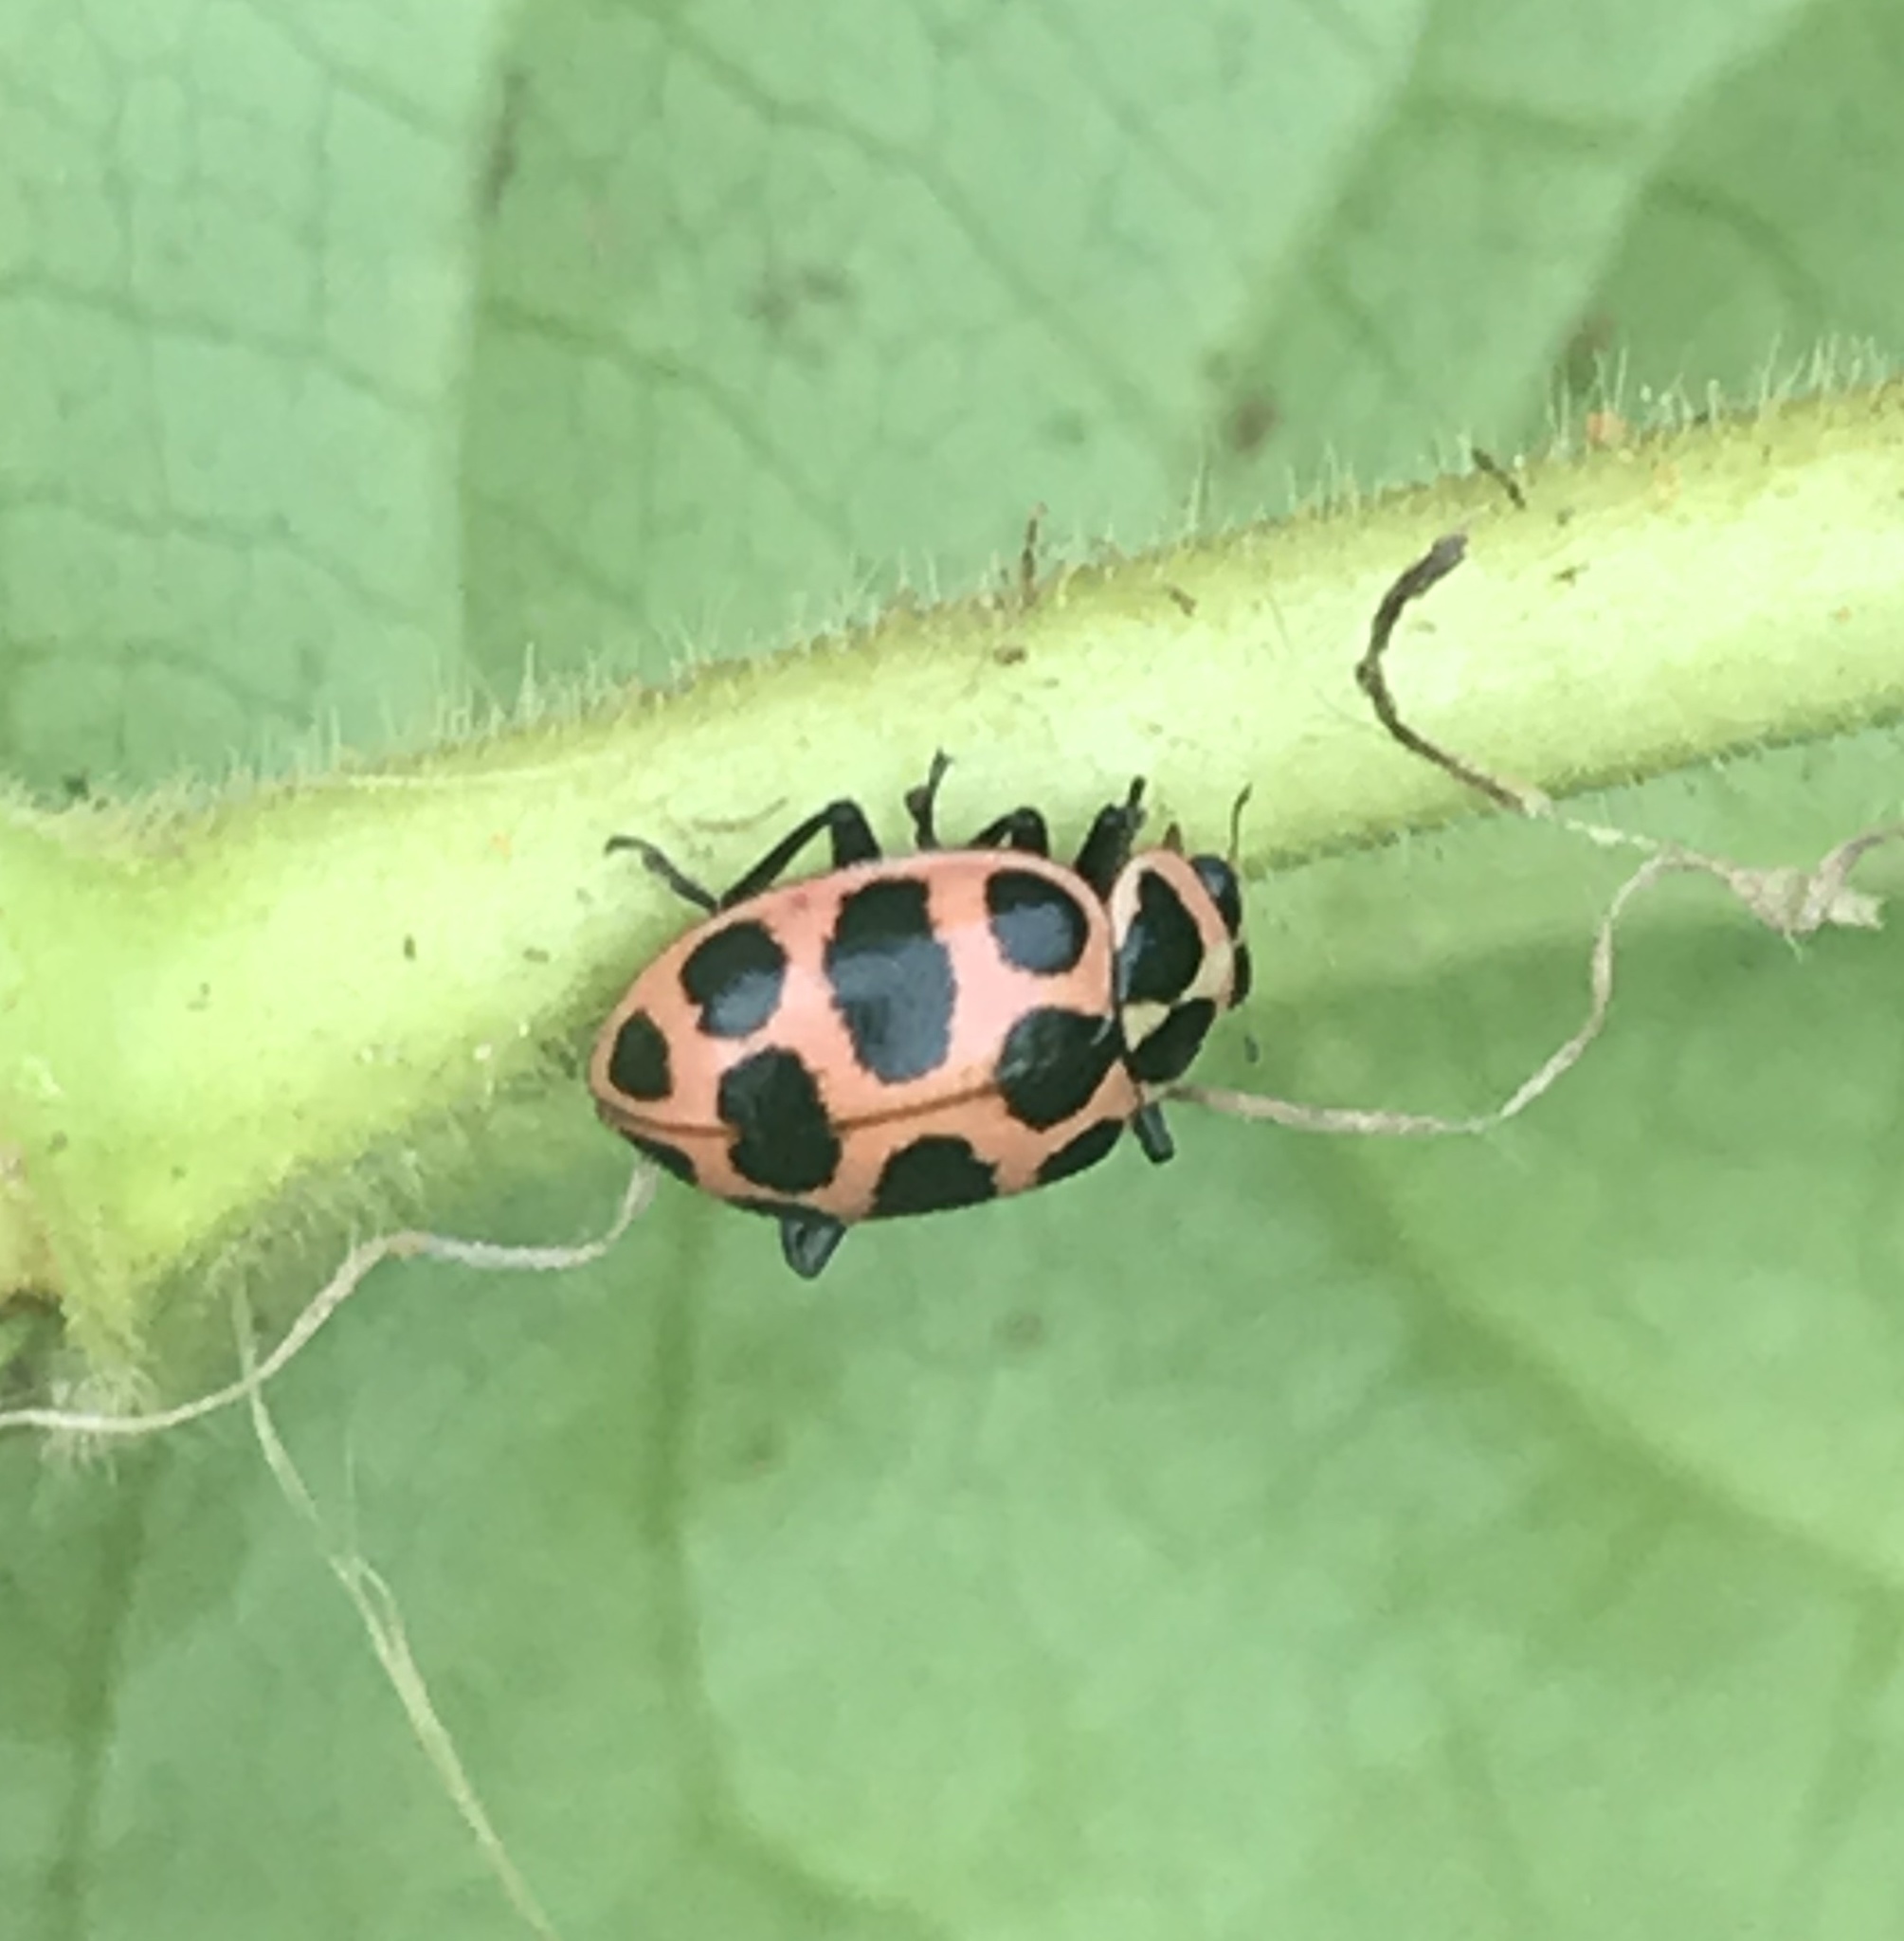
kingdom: Animalia
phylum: Arthropoda
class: Insecta
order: Coleoptera
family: Coccinellidae
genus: Coleomegilla
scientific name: Coleomegilla maculata
